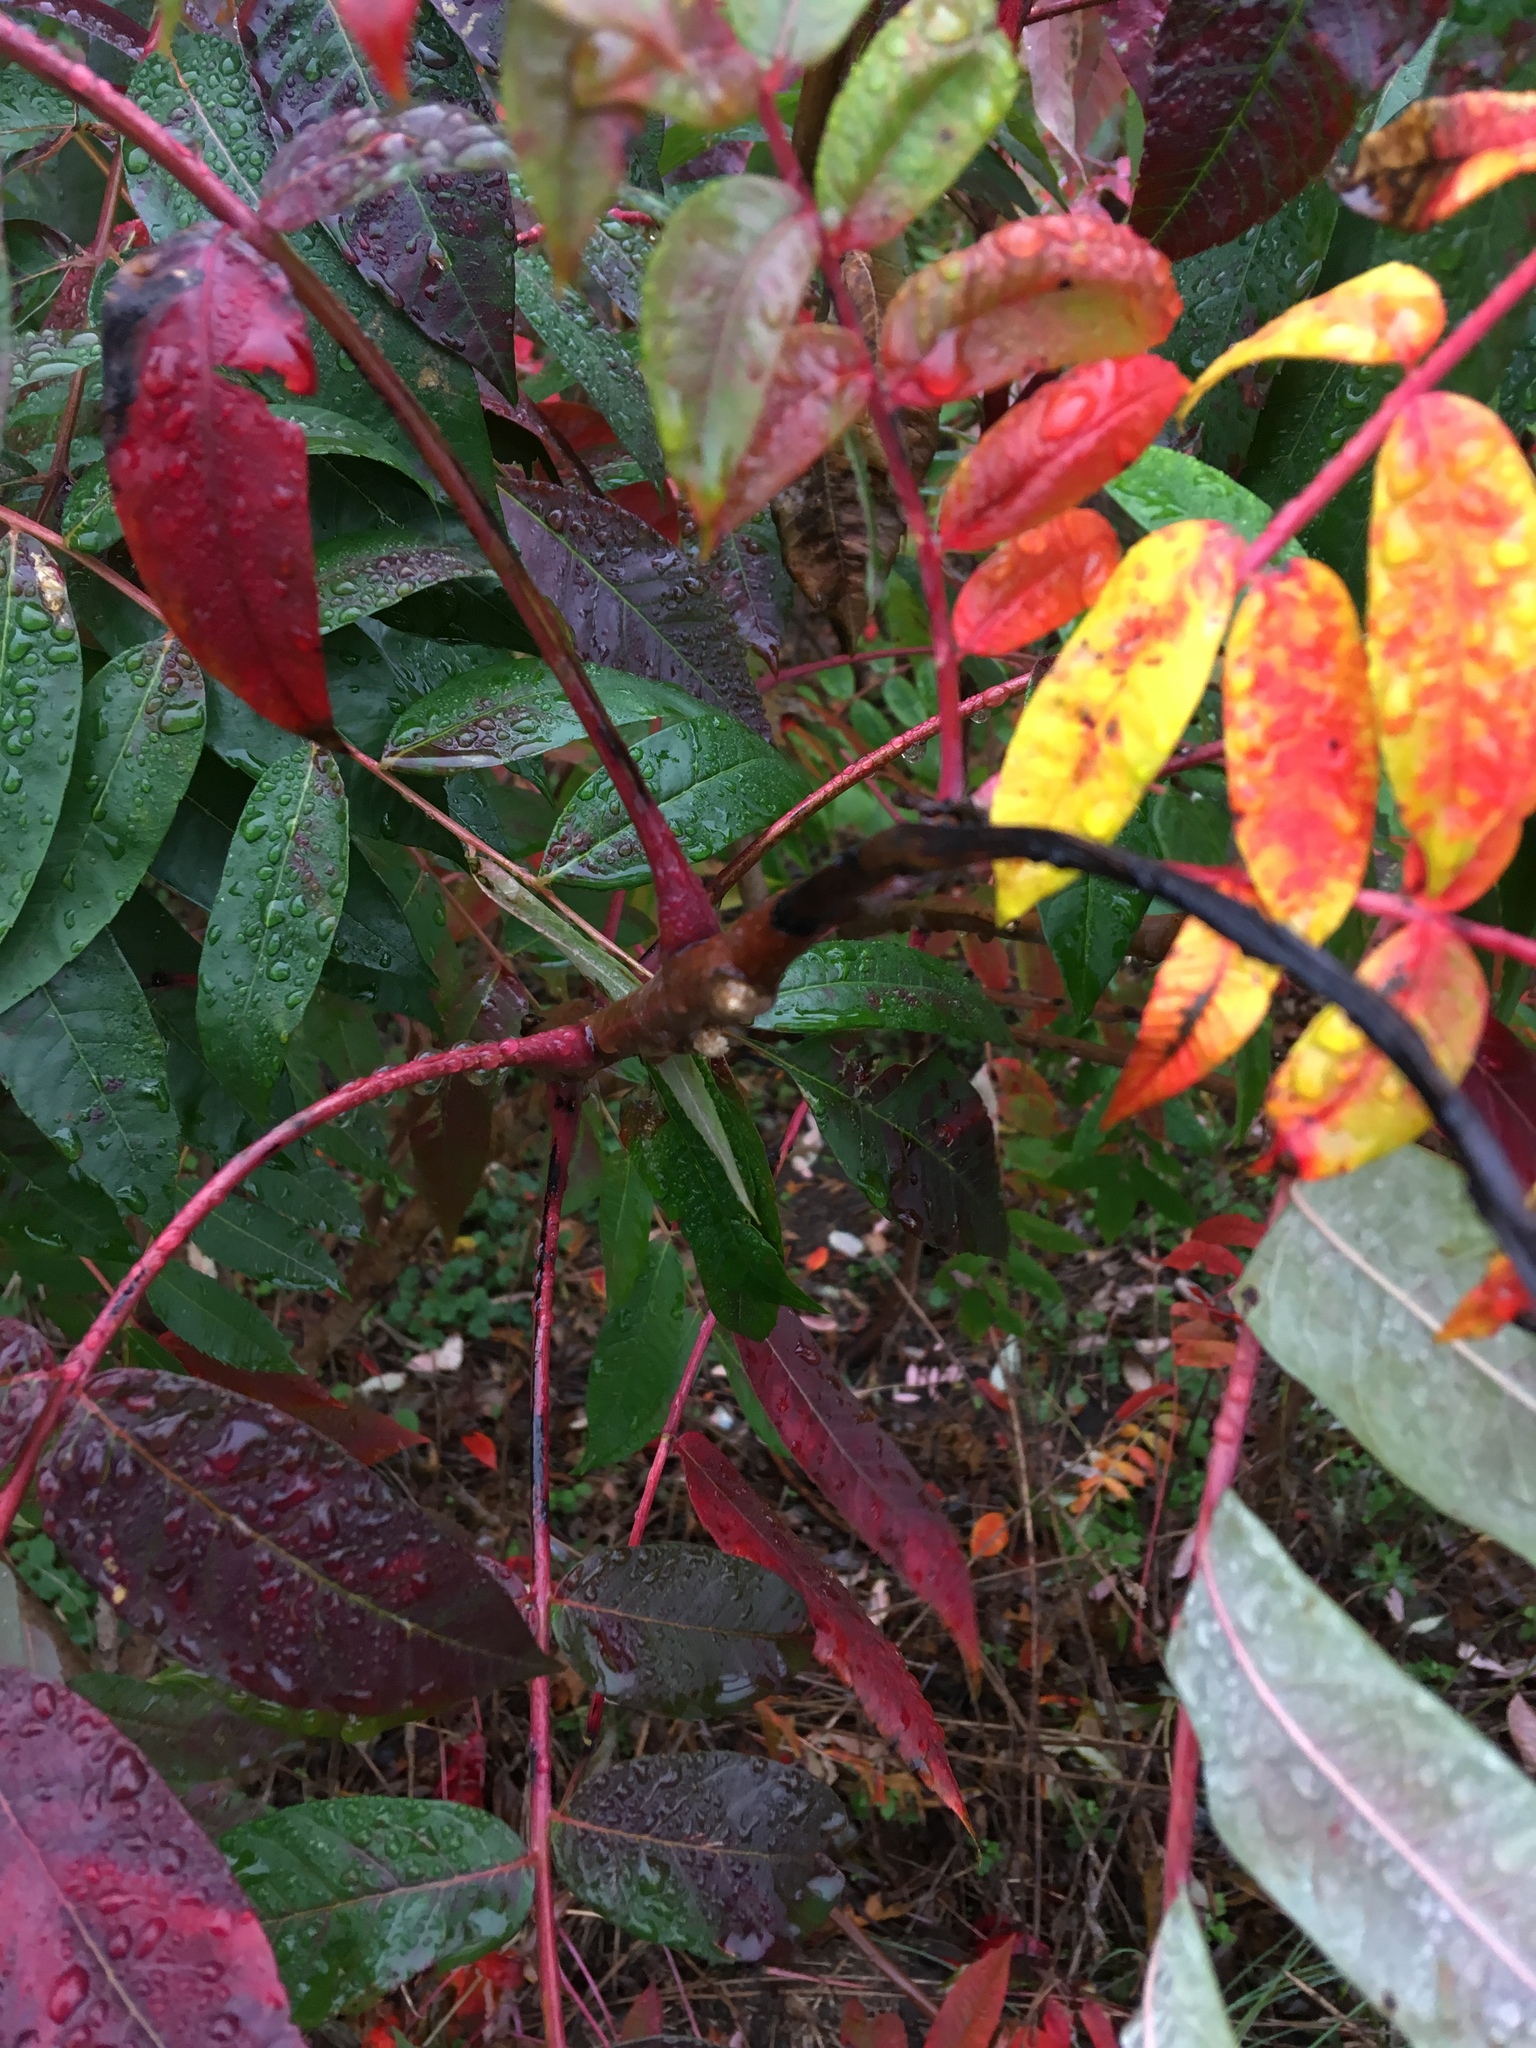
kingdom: Plantae
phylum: Tracheophyta
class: Magnoliopsida
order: Sapindales
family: Anacardiaceae
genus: Rhus
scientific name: Rhus glabra
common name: Scarlet sumac
